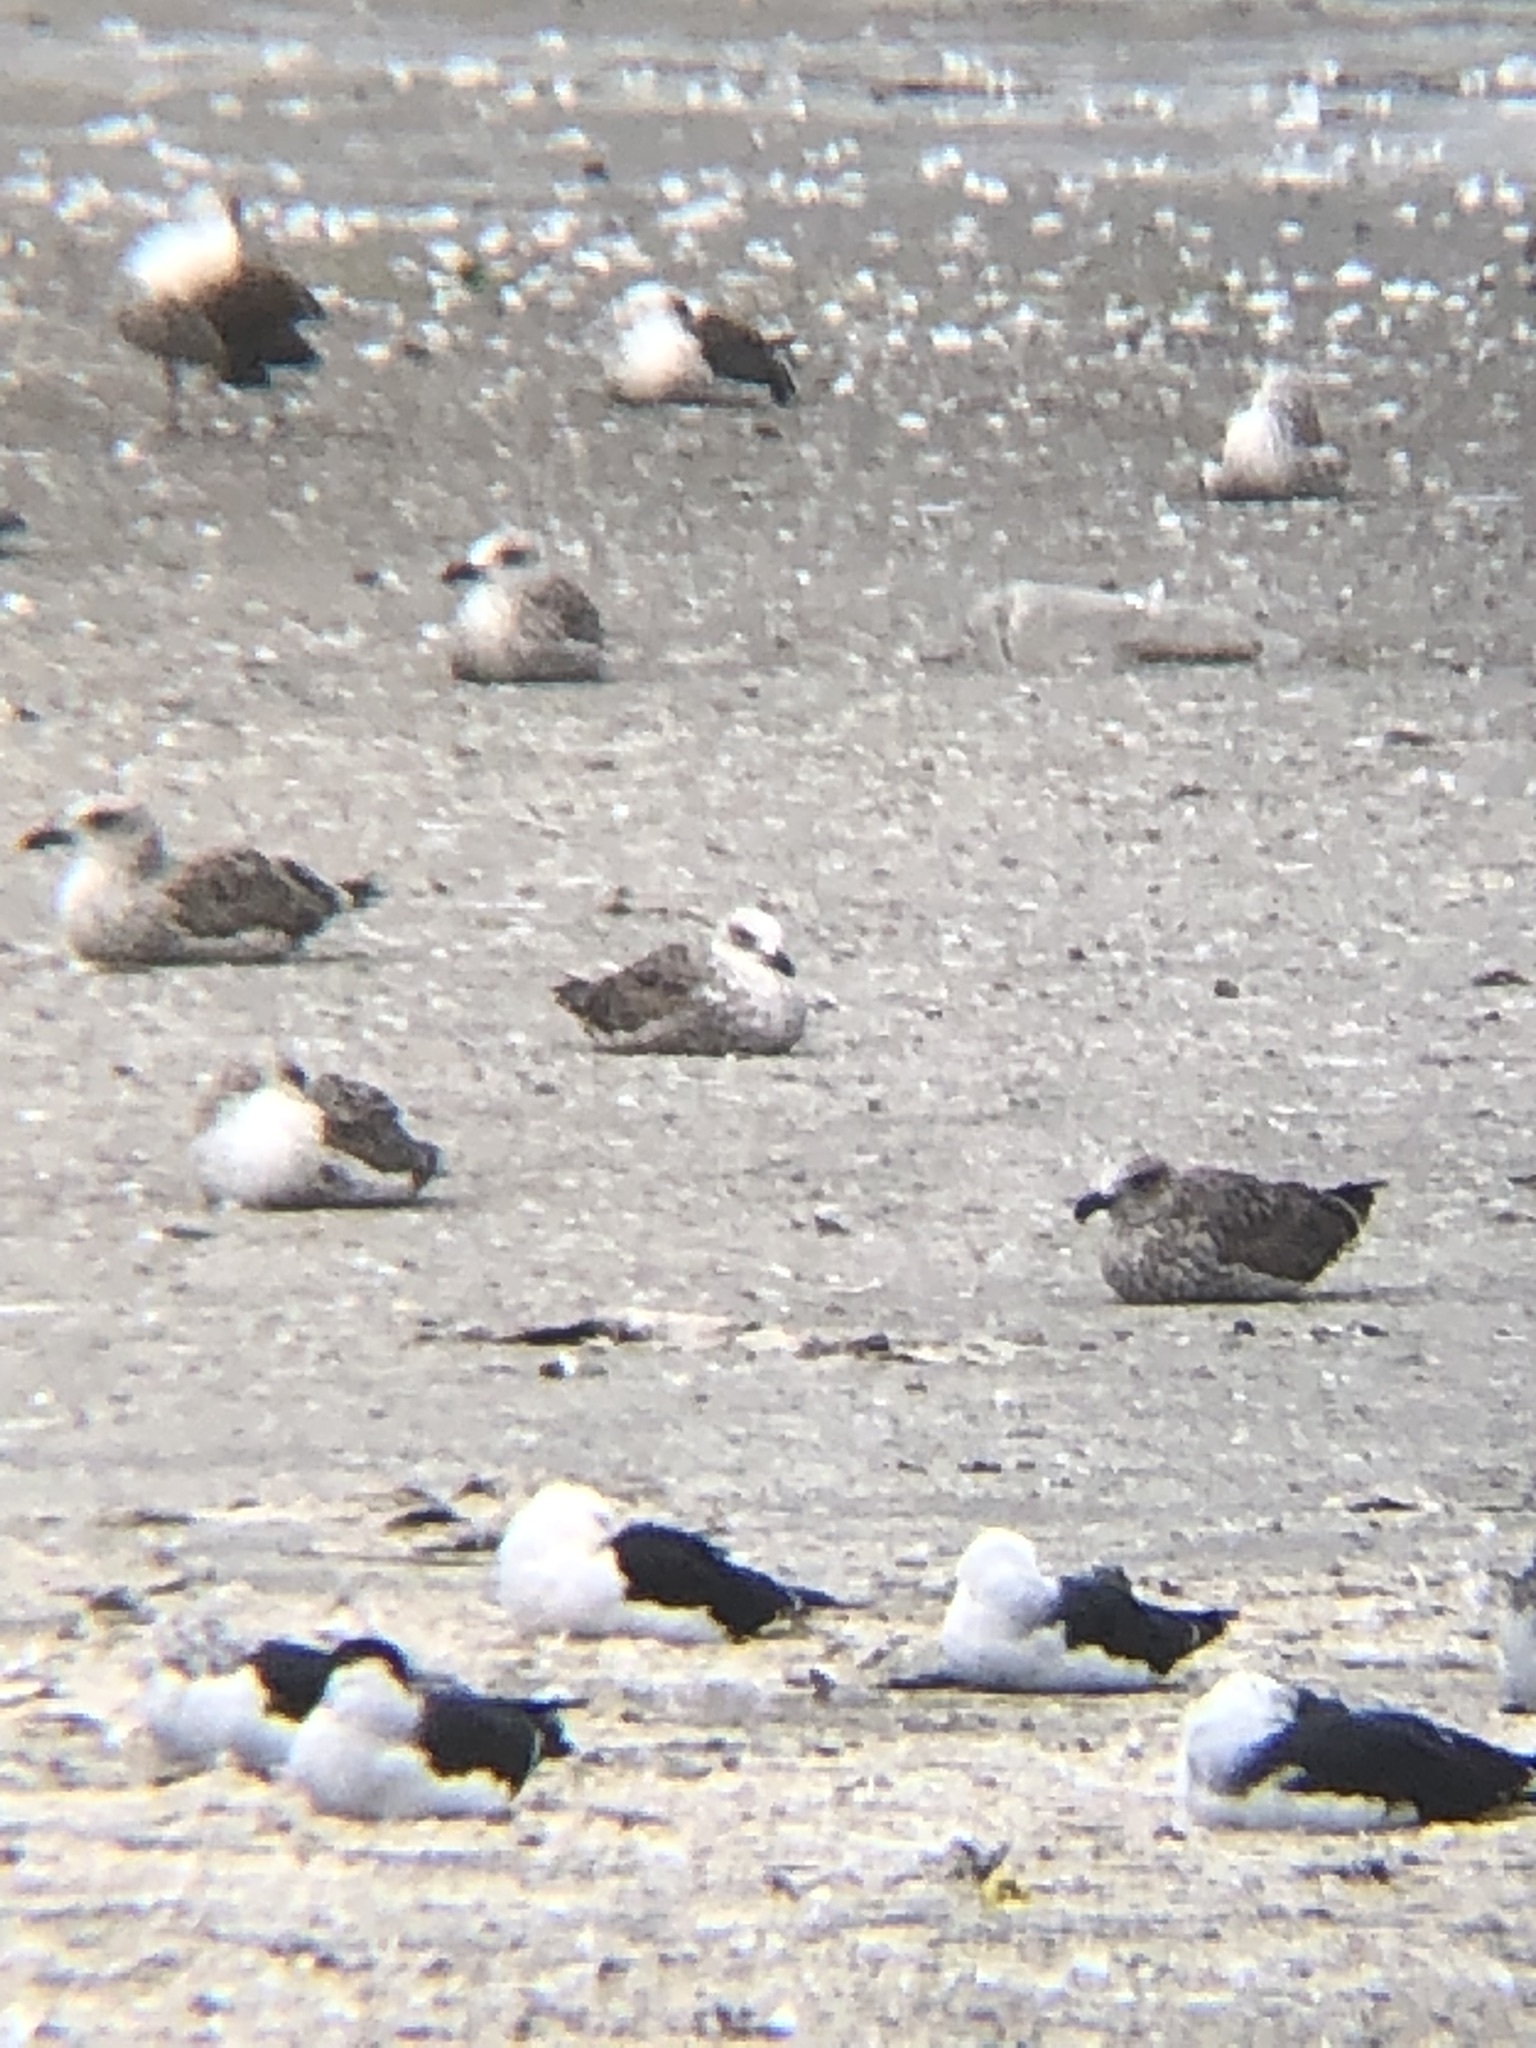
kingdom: Animalia
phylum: Chordata
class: Aves
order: Charadriiformes
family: Laridae
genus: Larus
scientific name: Larus dominicanus
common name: Kelp gull
